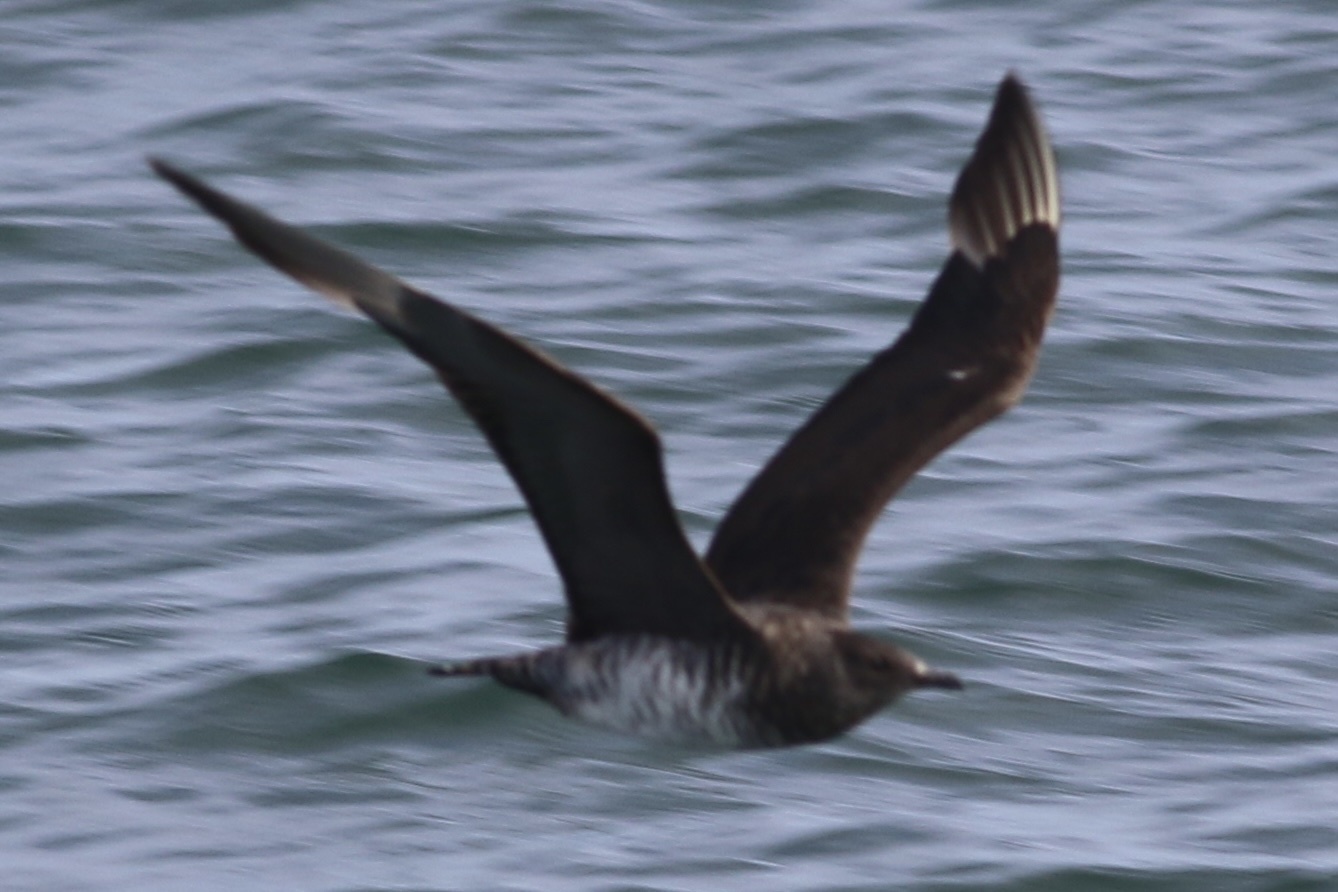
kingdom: Animalia
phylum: Chordata
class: Aves
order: Charadriiformes
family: Stercorariidae
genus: Stercorarius
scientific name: Stercorarius parasiticus
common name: Parasitic jaeger
